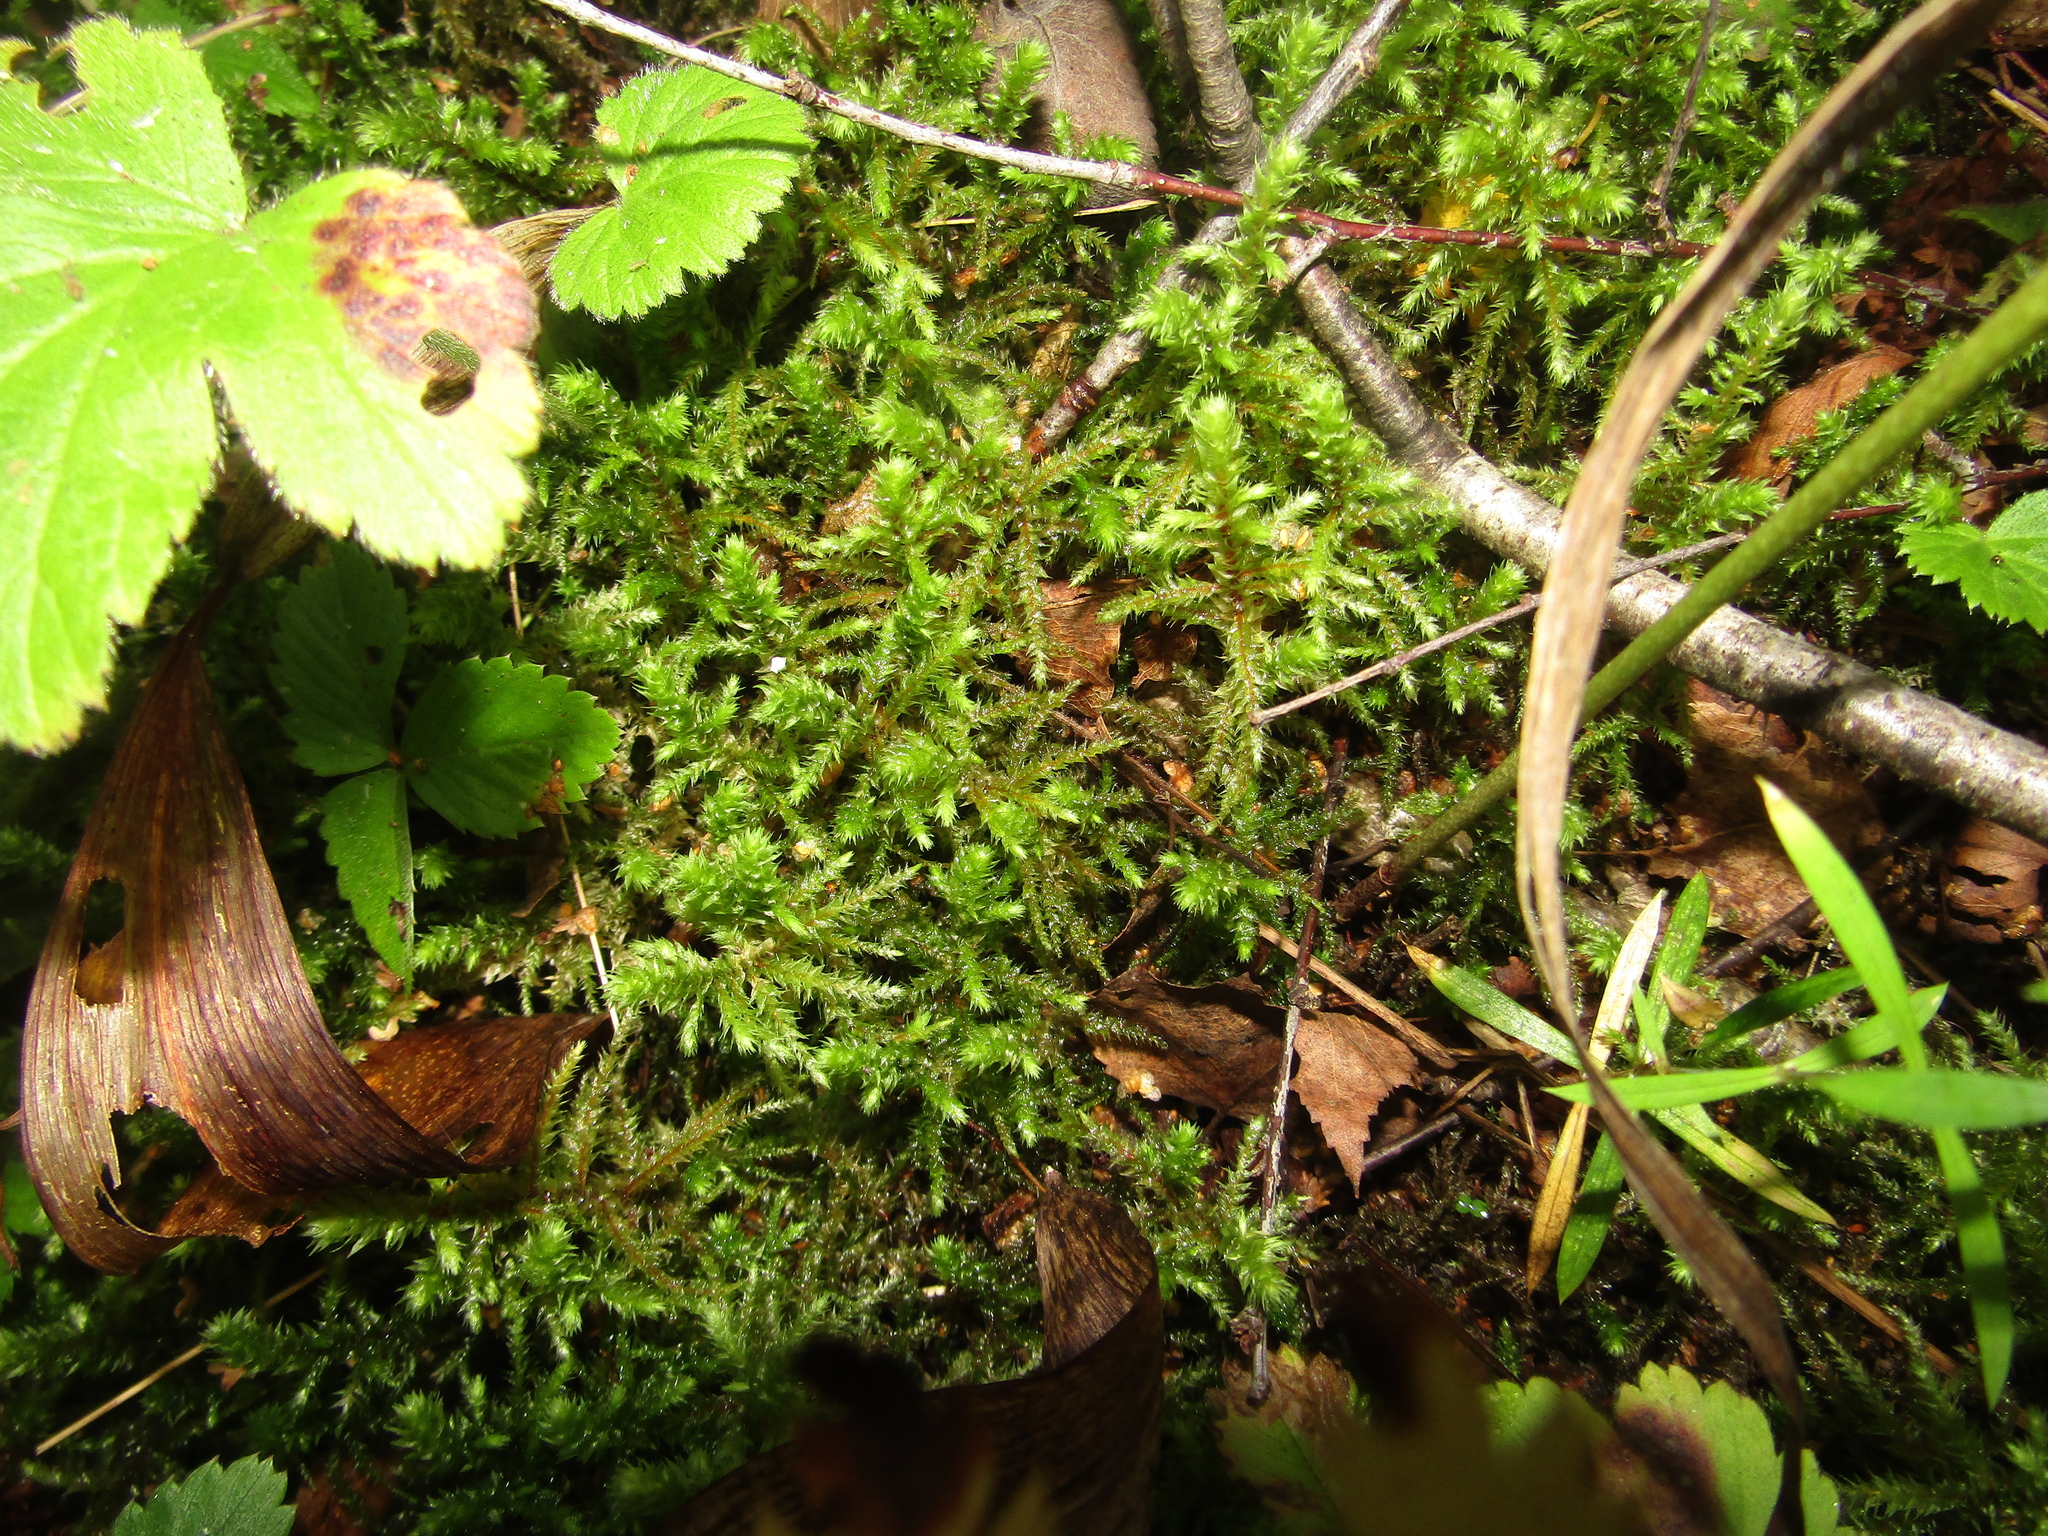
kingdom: Plantae
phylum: Bryophyta
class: Bryopsida
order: Hypnales
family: Hylocomiaceae
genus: Hylocomiadelphus
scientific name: Hylocomiadelphus triquetrus
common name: Rough goose neck moss
